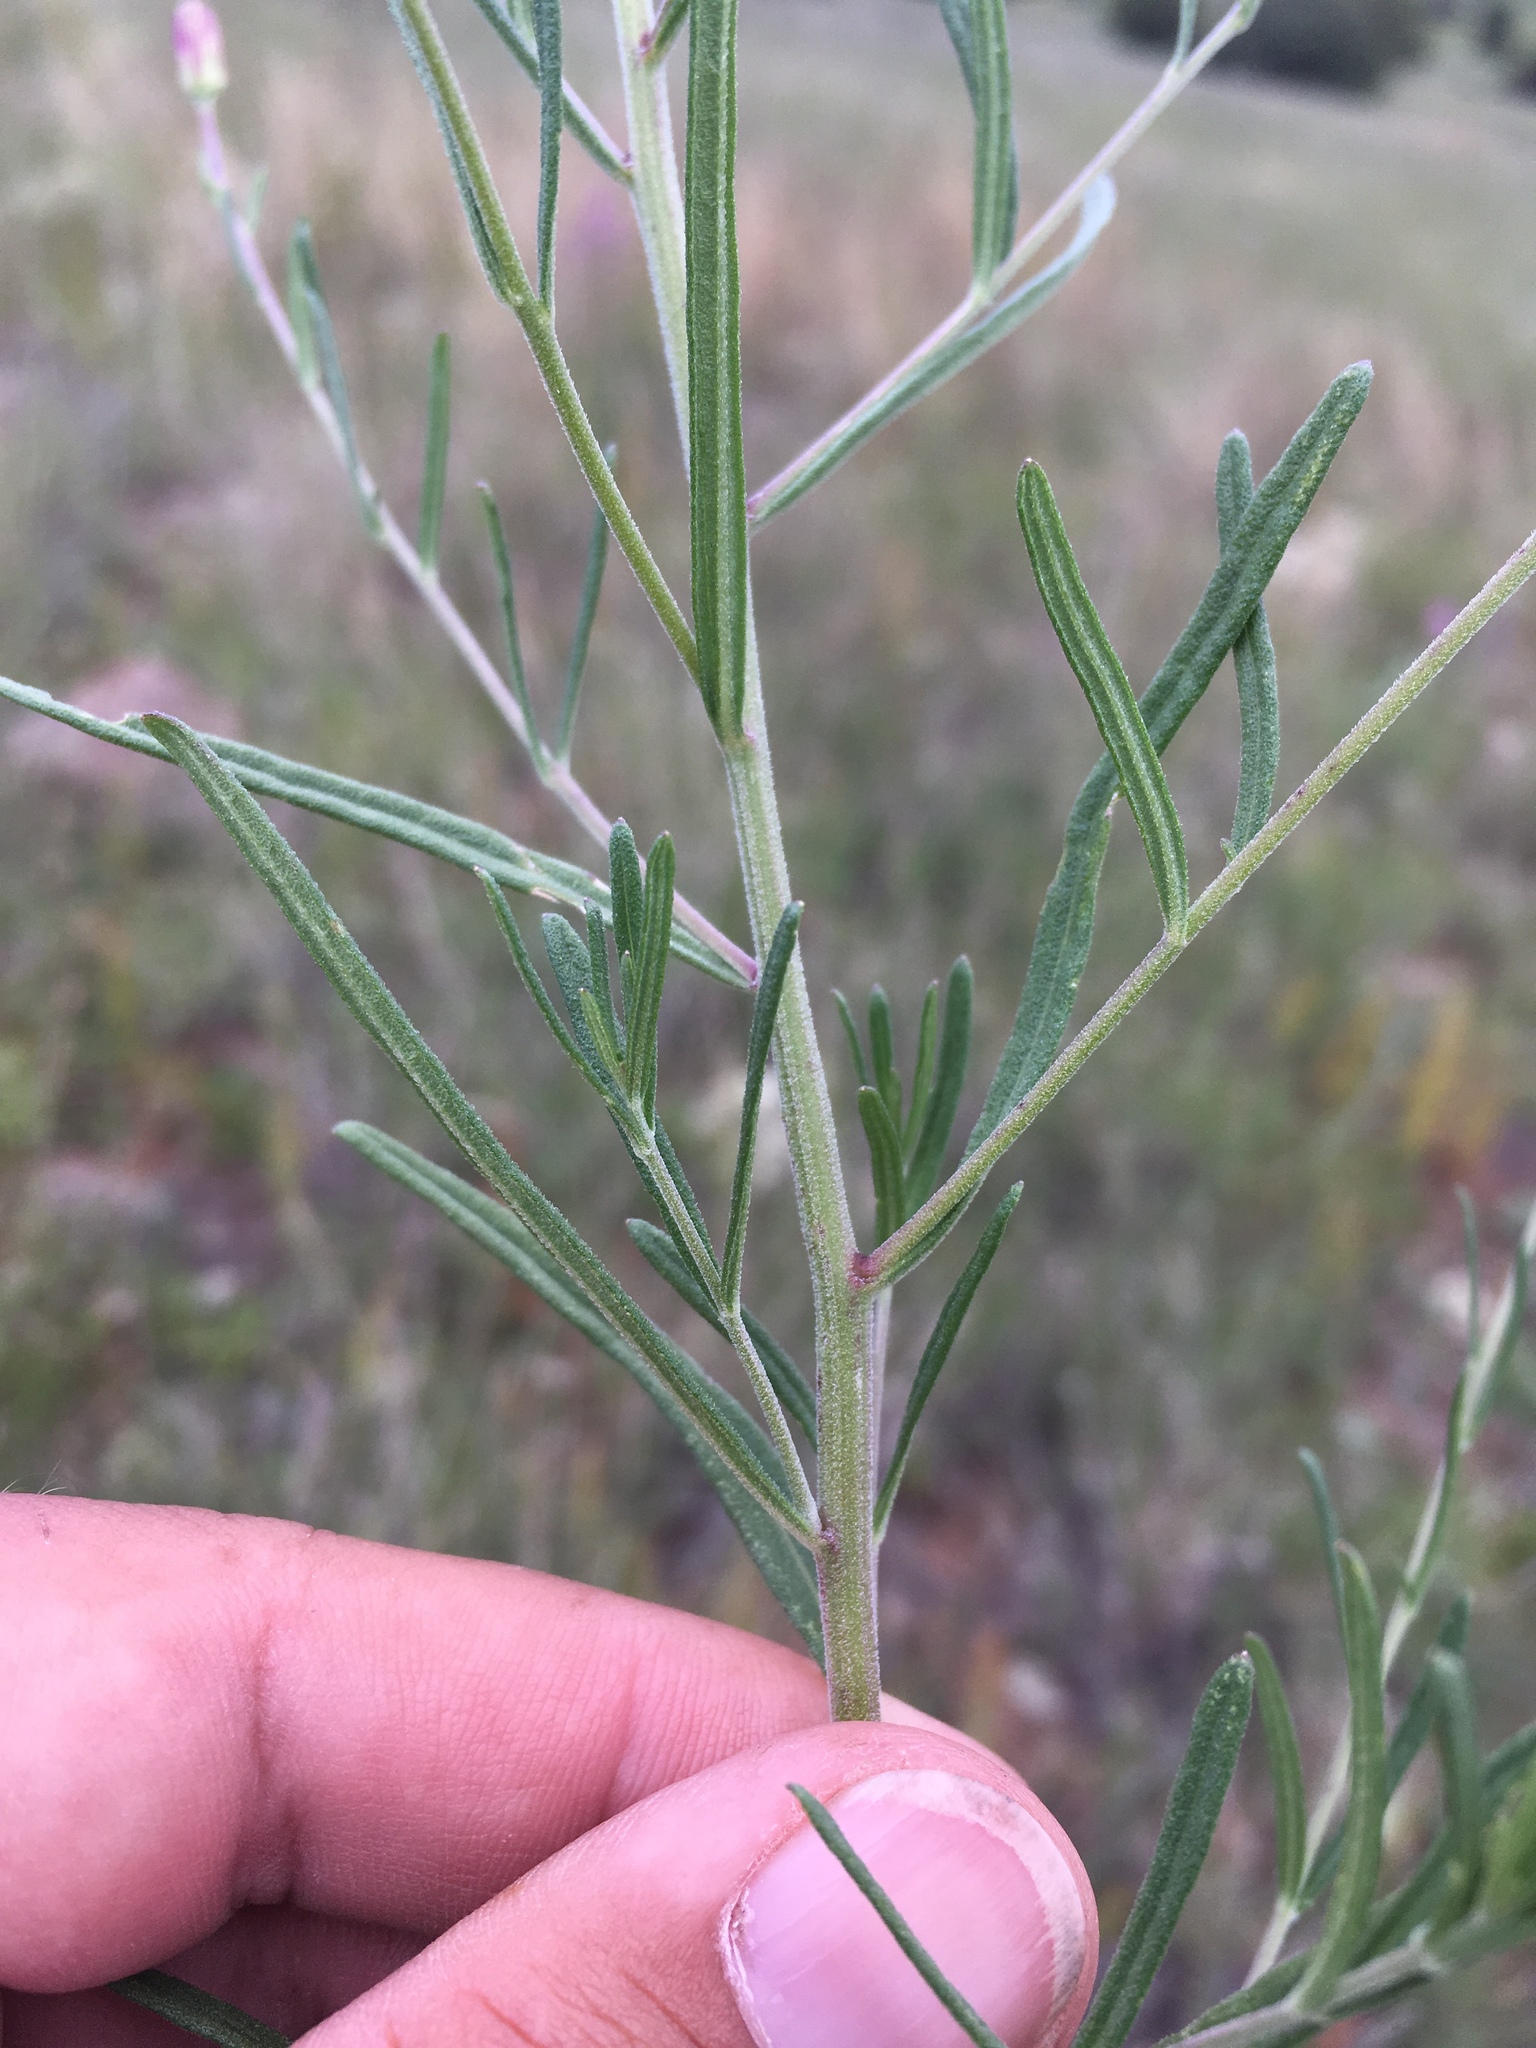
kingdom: Plantae
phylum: Tracheophyta
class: Magnoliopsida
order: Asterales
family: Asteraceae
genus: Brickellia
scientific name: Brickellia eupatorioides
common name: False boneset
